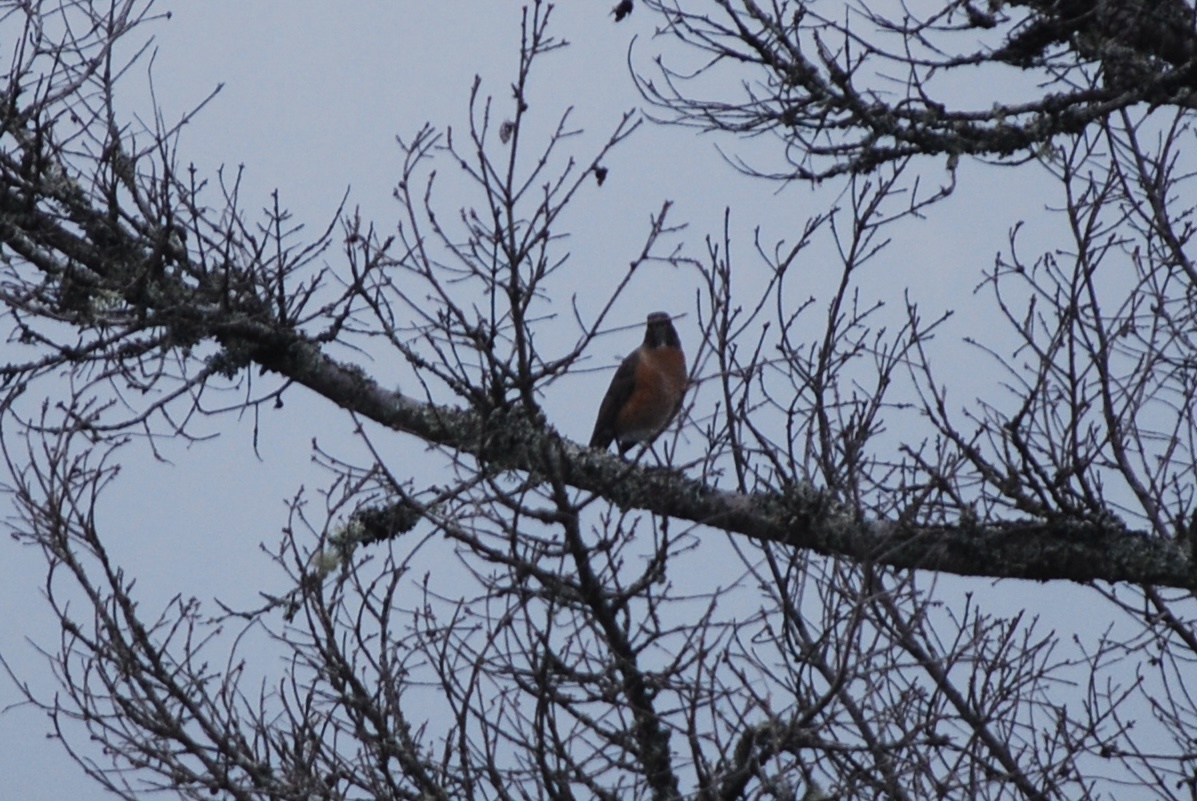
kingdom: Animalia
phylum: Chordata
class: Aves
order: Passeriformes
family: Turdidae
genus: Turdus
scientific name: Turdus migratorius
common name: American robin
